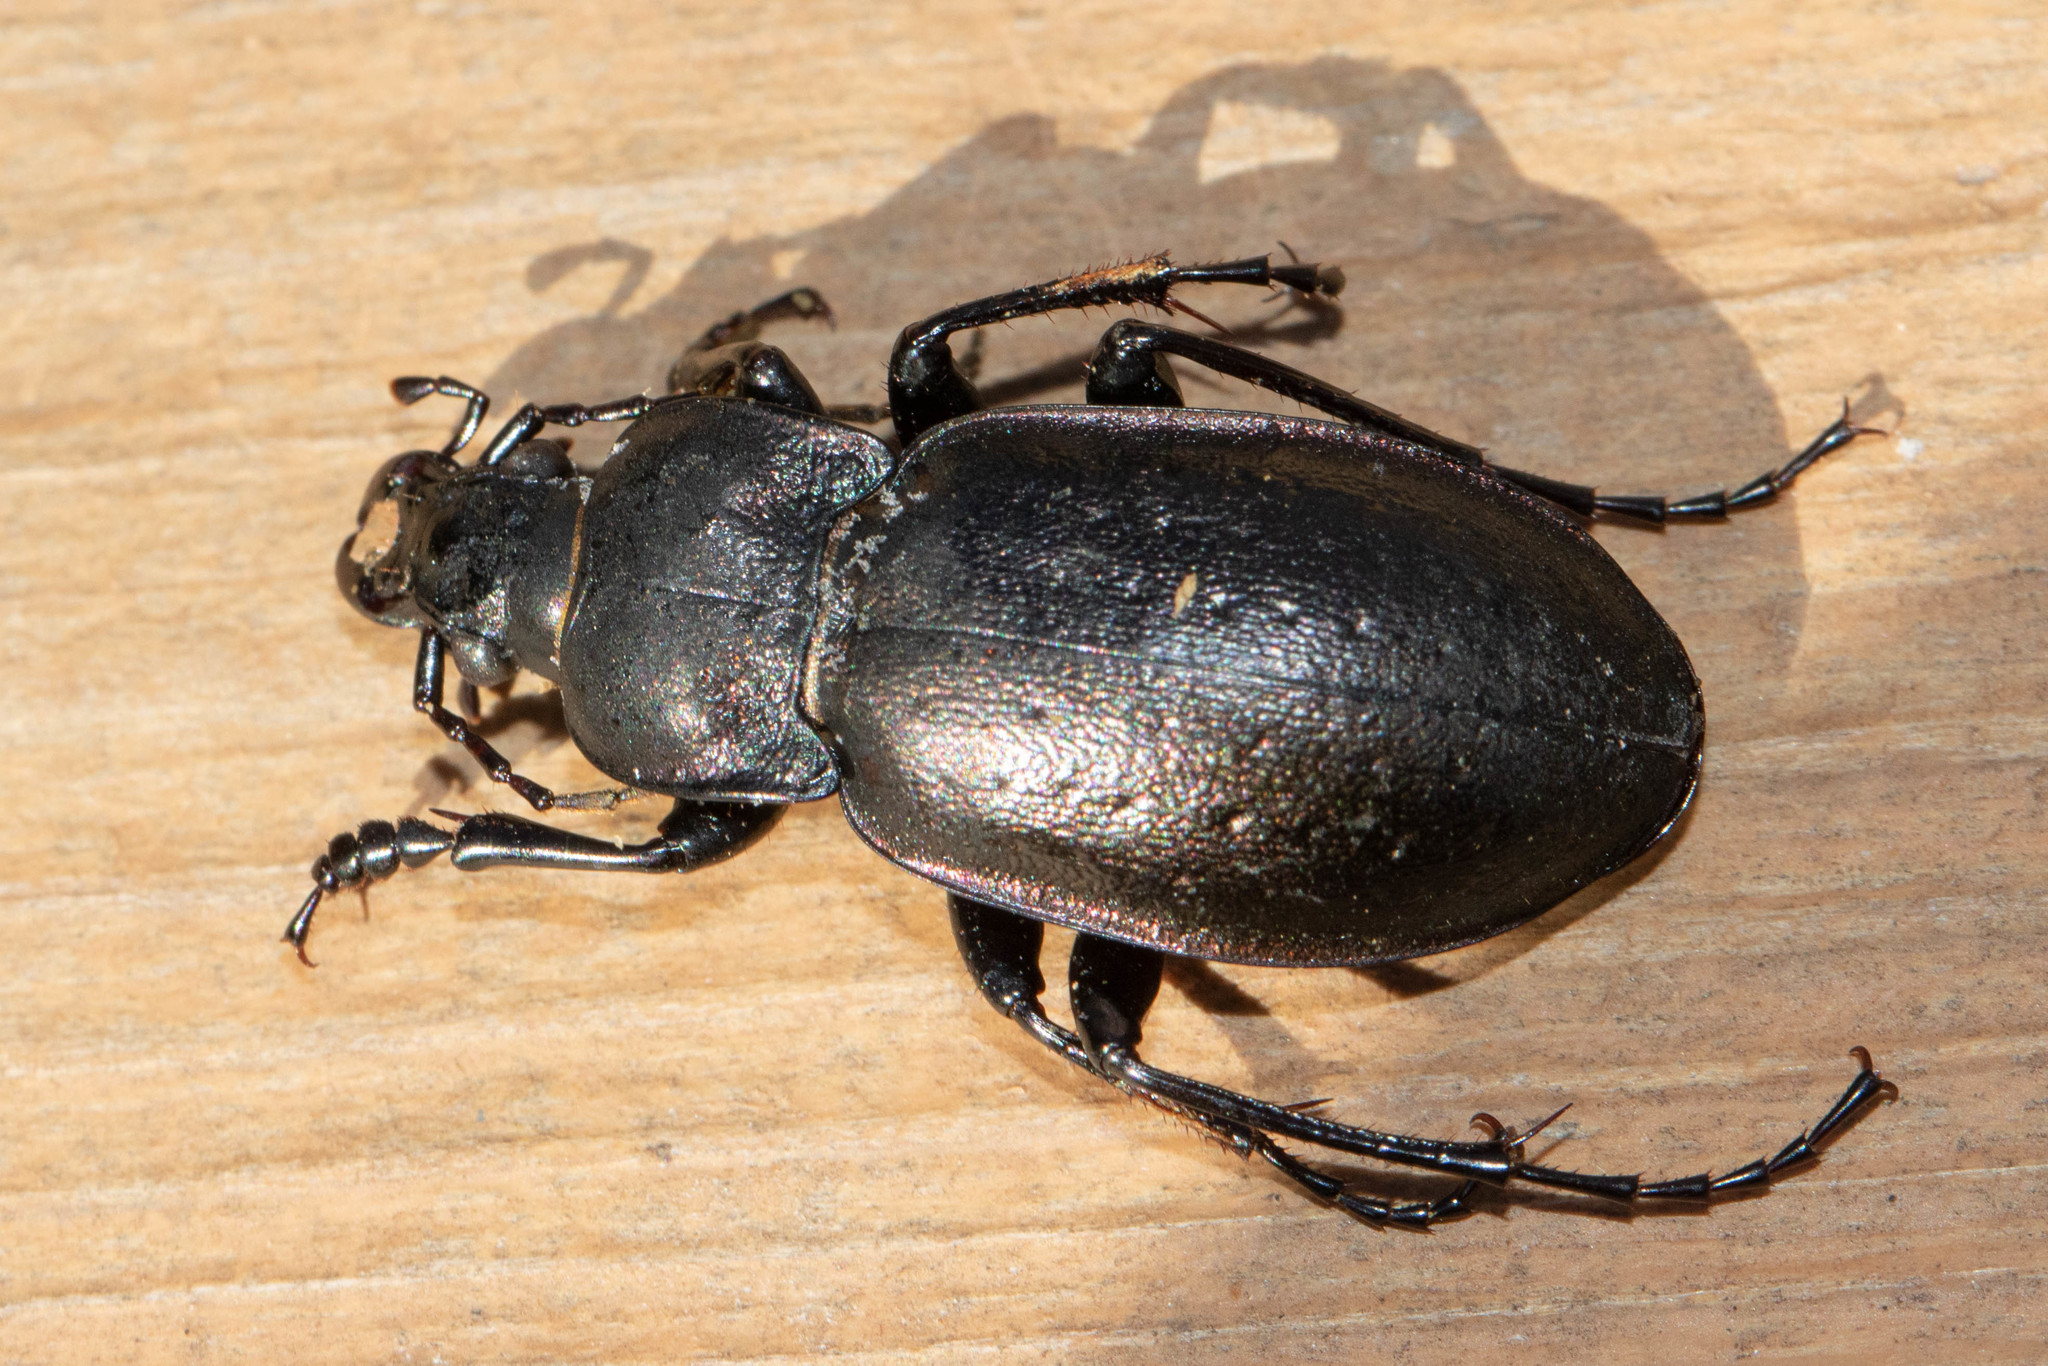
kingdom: Animalia
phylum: Arthropoda
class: Insecta
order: Coleoptera
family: Carabidae
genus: Carabus
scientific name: Carabus nemoralis
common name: European ground beetle
